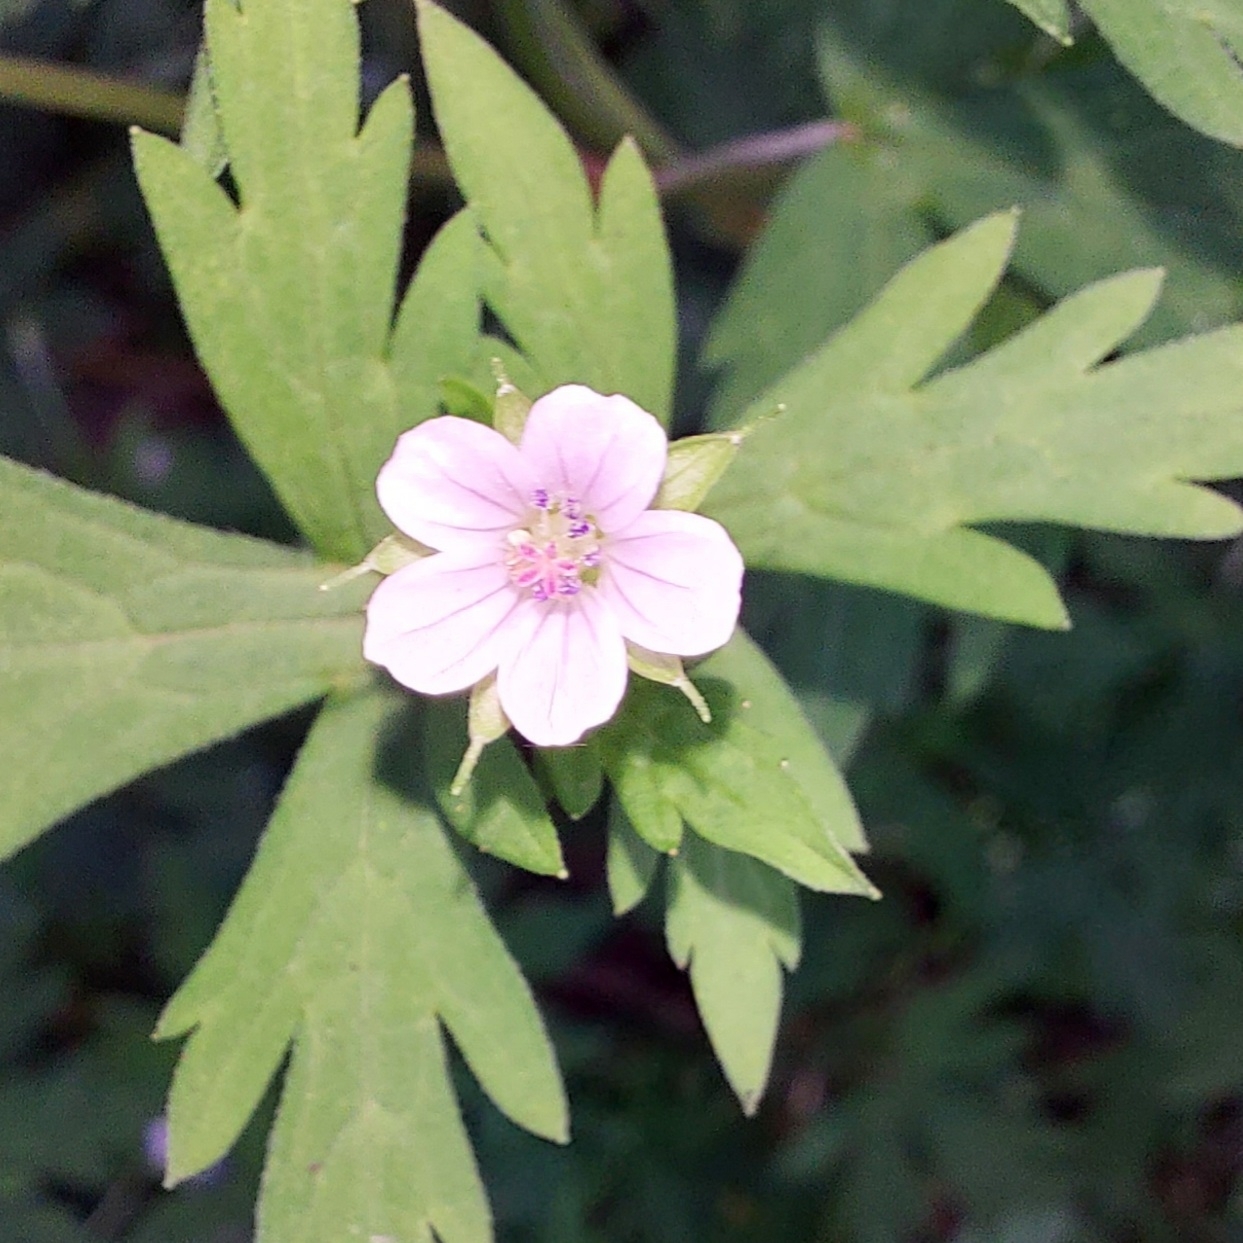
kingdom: Plantae
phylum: Tracheophyta
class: Magnoliopsida
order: Geraniales
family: Geraniaceae
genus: Geranium
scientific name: Geranium sibiricum
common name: Siberian crane's-bill
